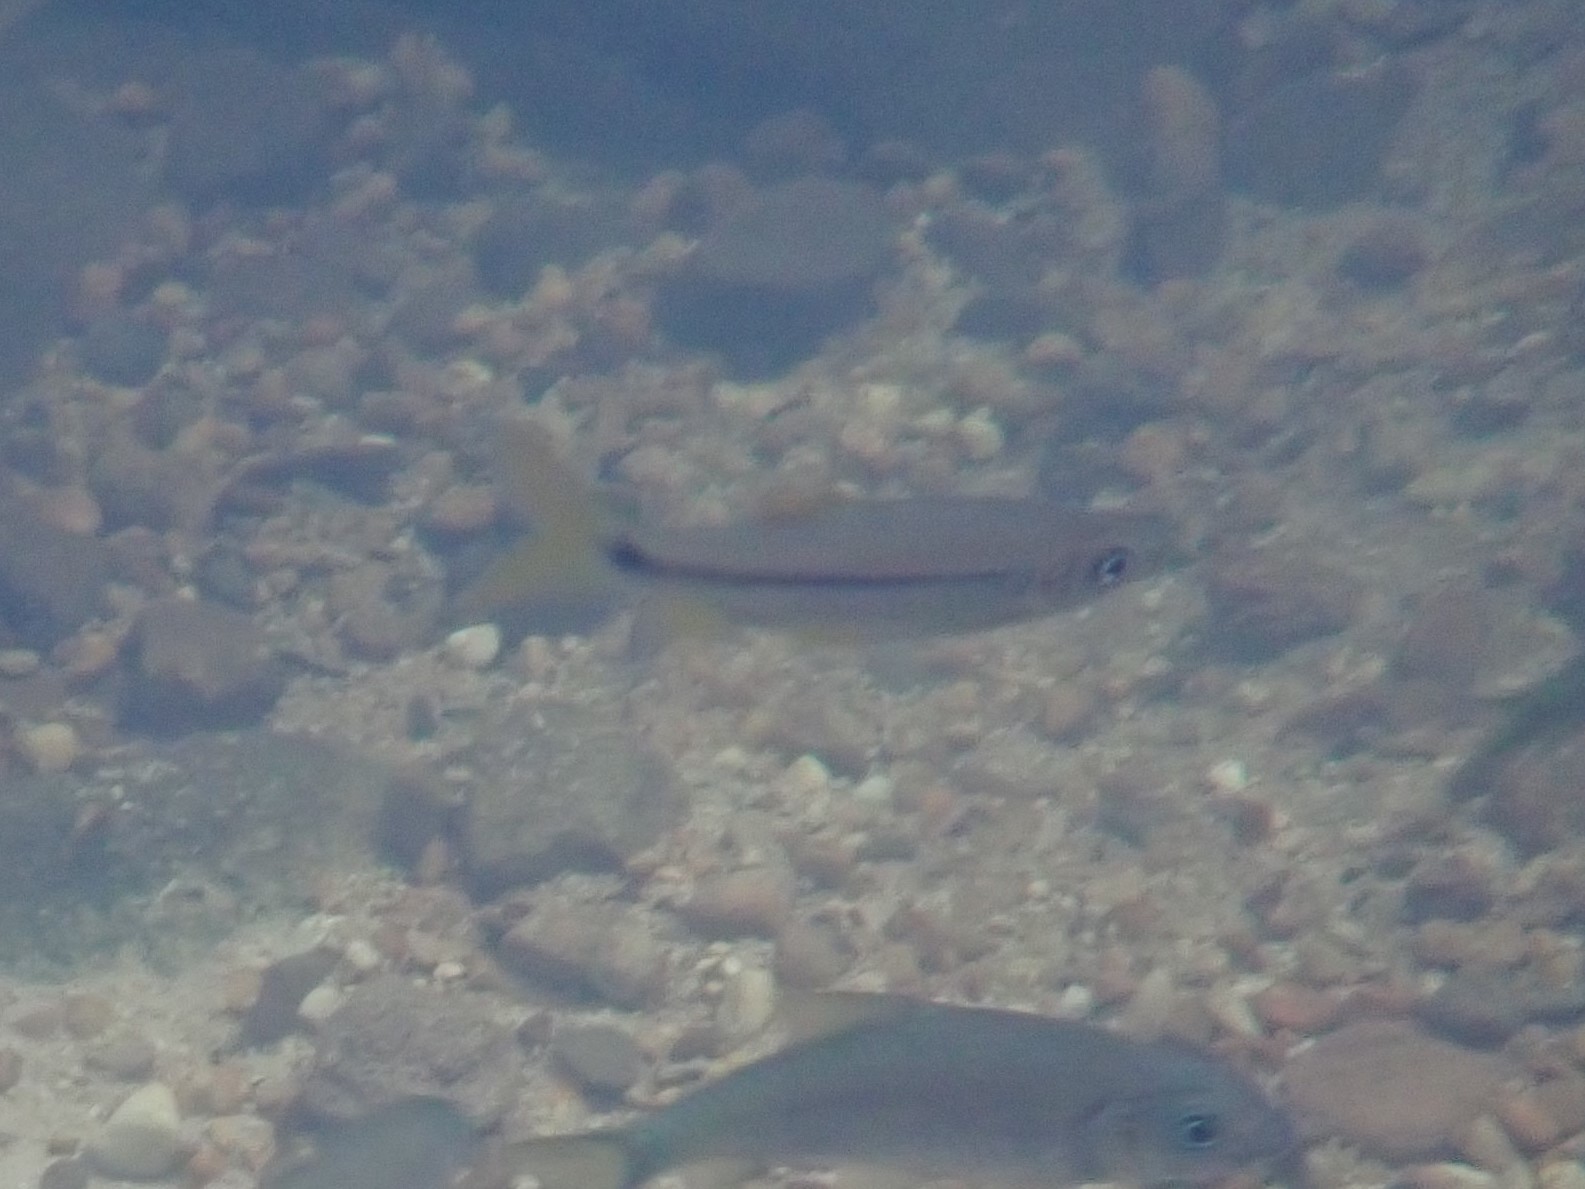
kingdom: Animalia
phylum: Chordata
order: Cypriniformes
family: Cyprinidae
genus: Rasbora
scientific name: Rasbora paviana
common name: Sidestripe rasbora
